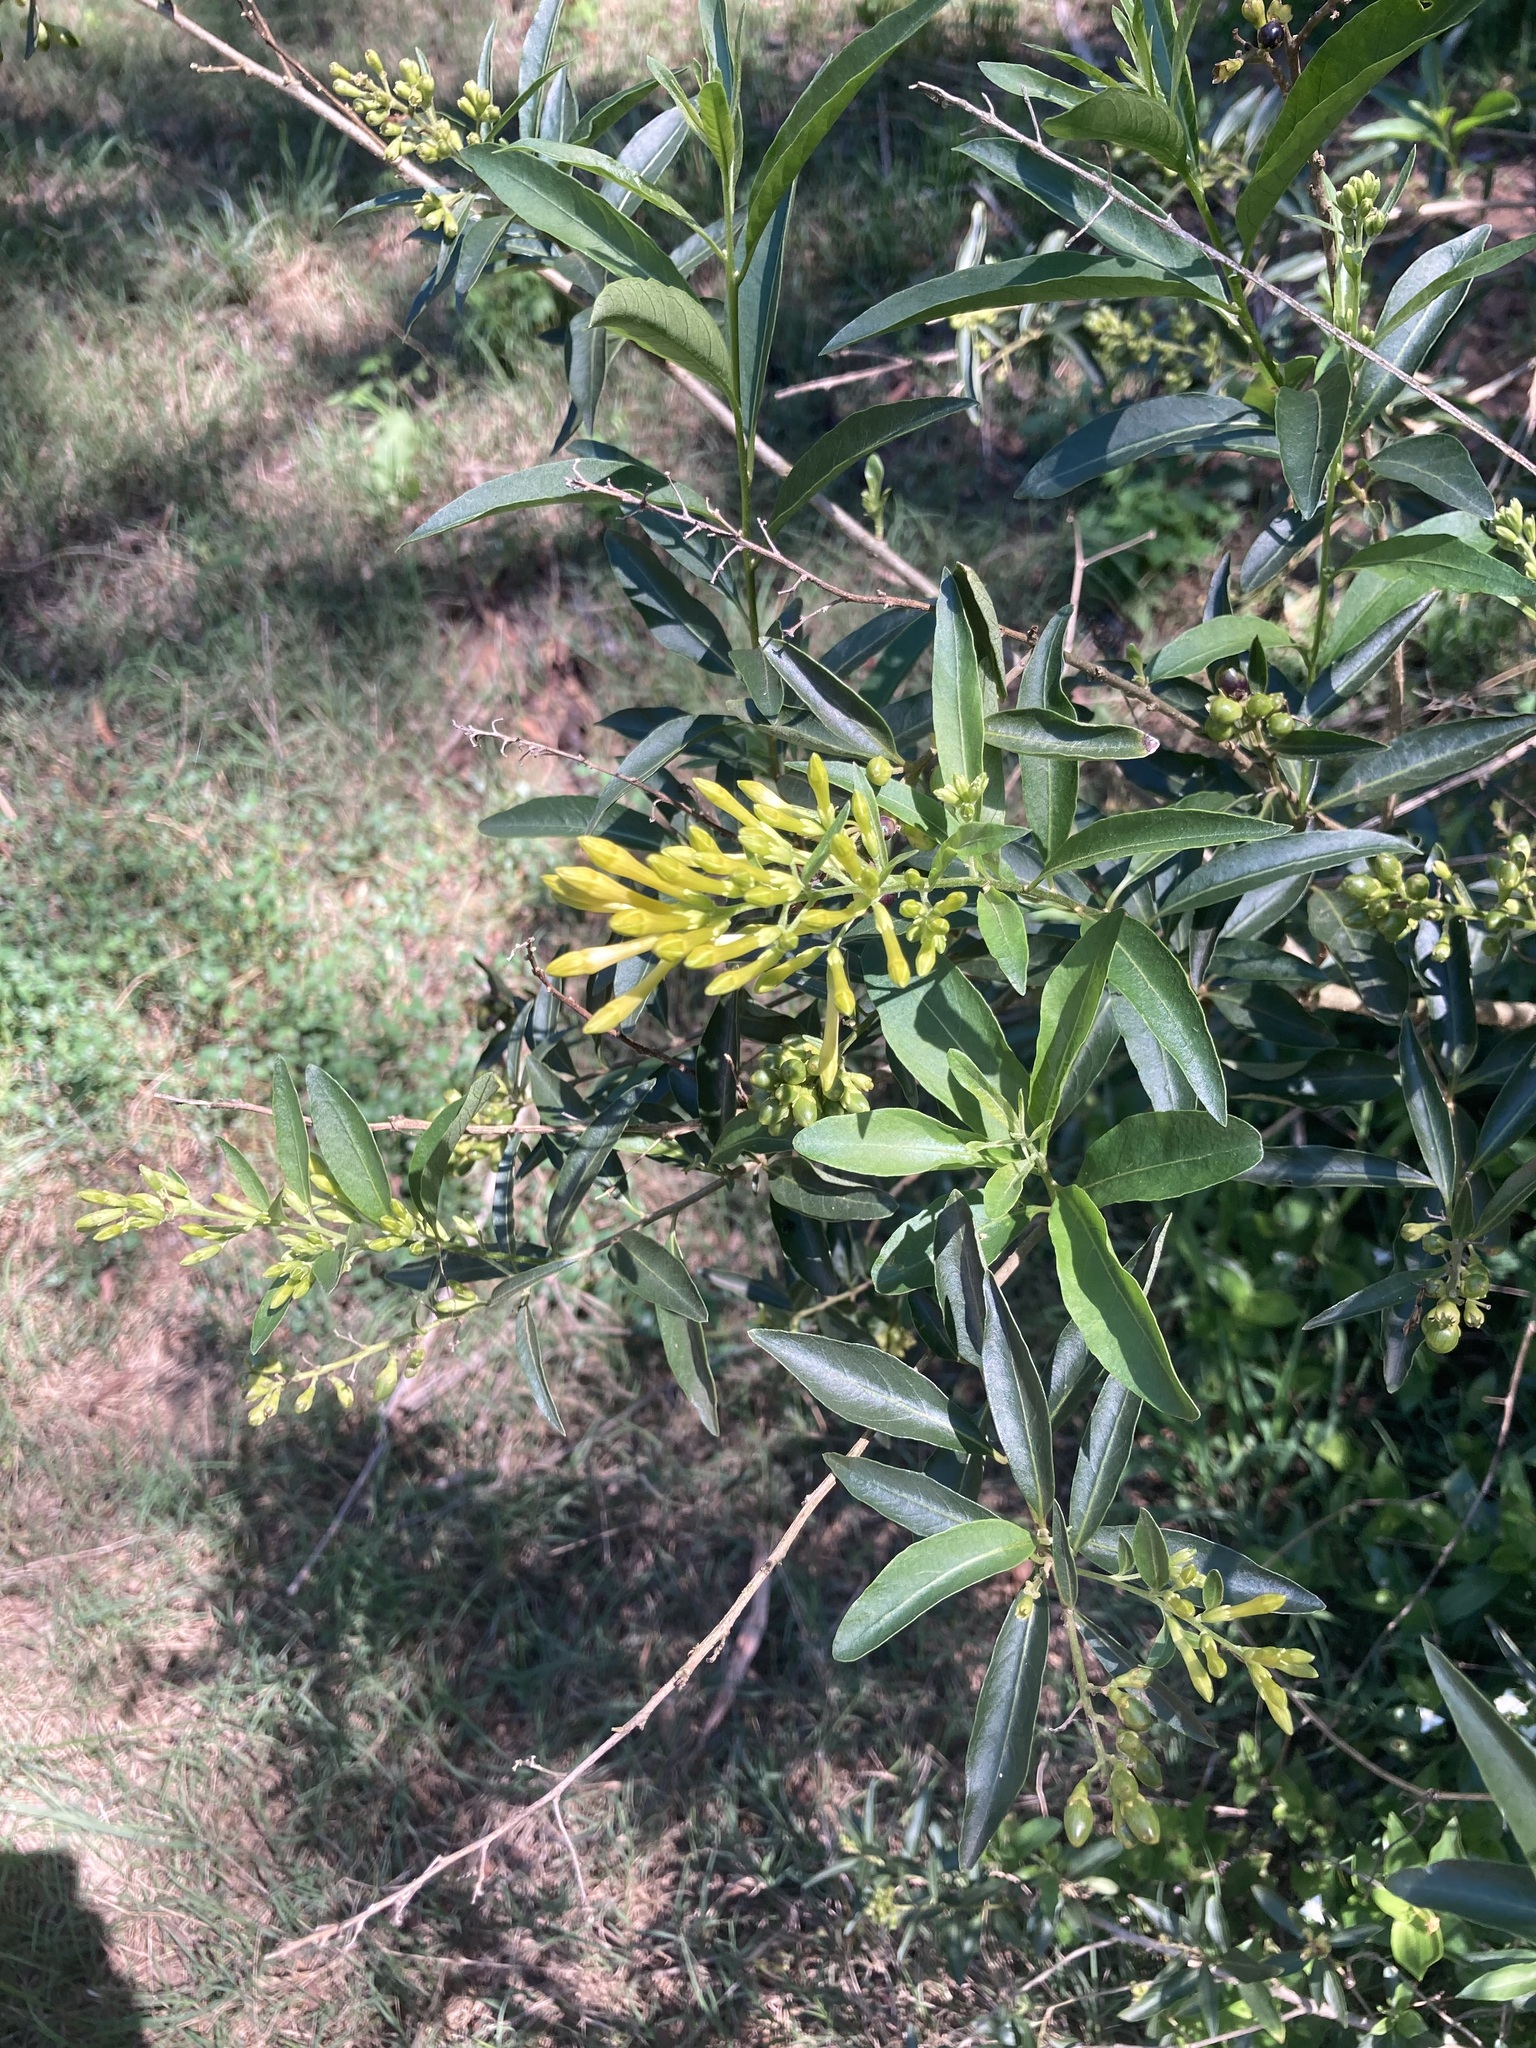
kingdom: Plantae
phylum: Tracheophyta
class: Magnoliopsida
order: Solanales
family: Solanaceae
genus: Cestrum
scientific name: Cestrum parqui
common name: Chilean cestrum
